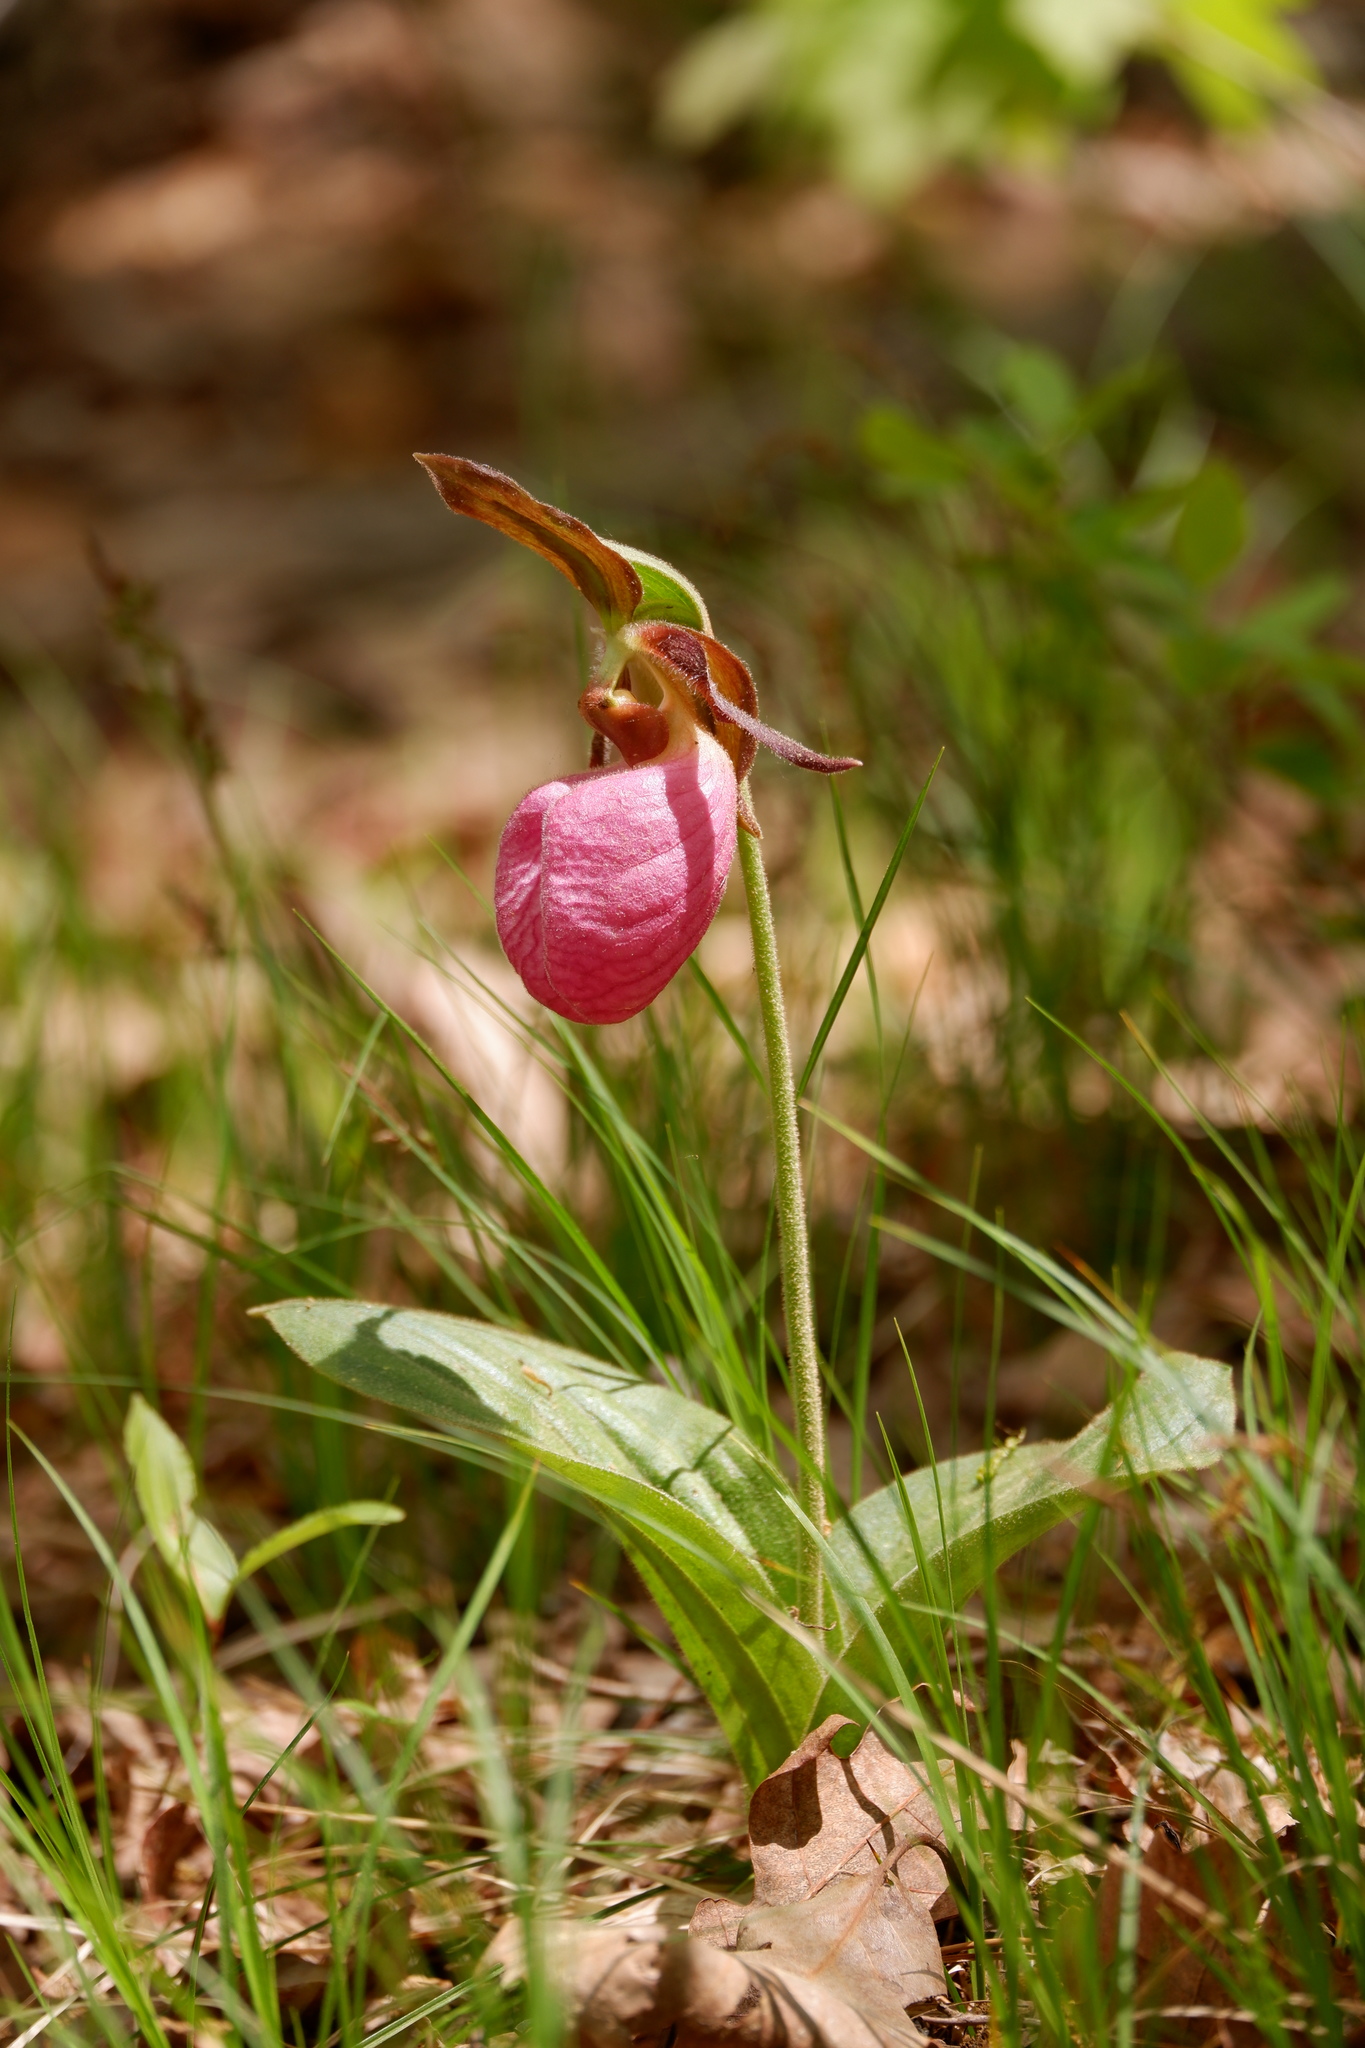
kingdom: Plantae
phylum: Tracheophyta
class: Liliopsida
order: Asparagales
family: Orchidaceae
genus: Cypripedium
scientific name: Cypripedium acaule
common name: Pink lady's-slipper
